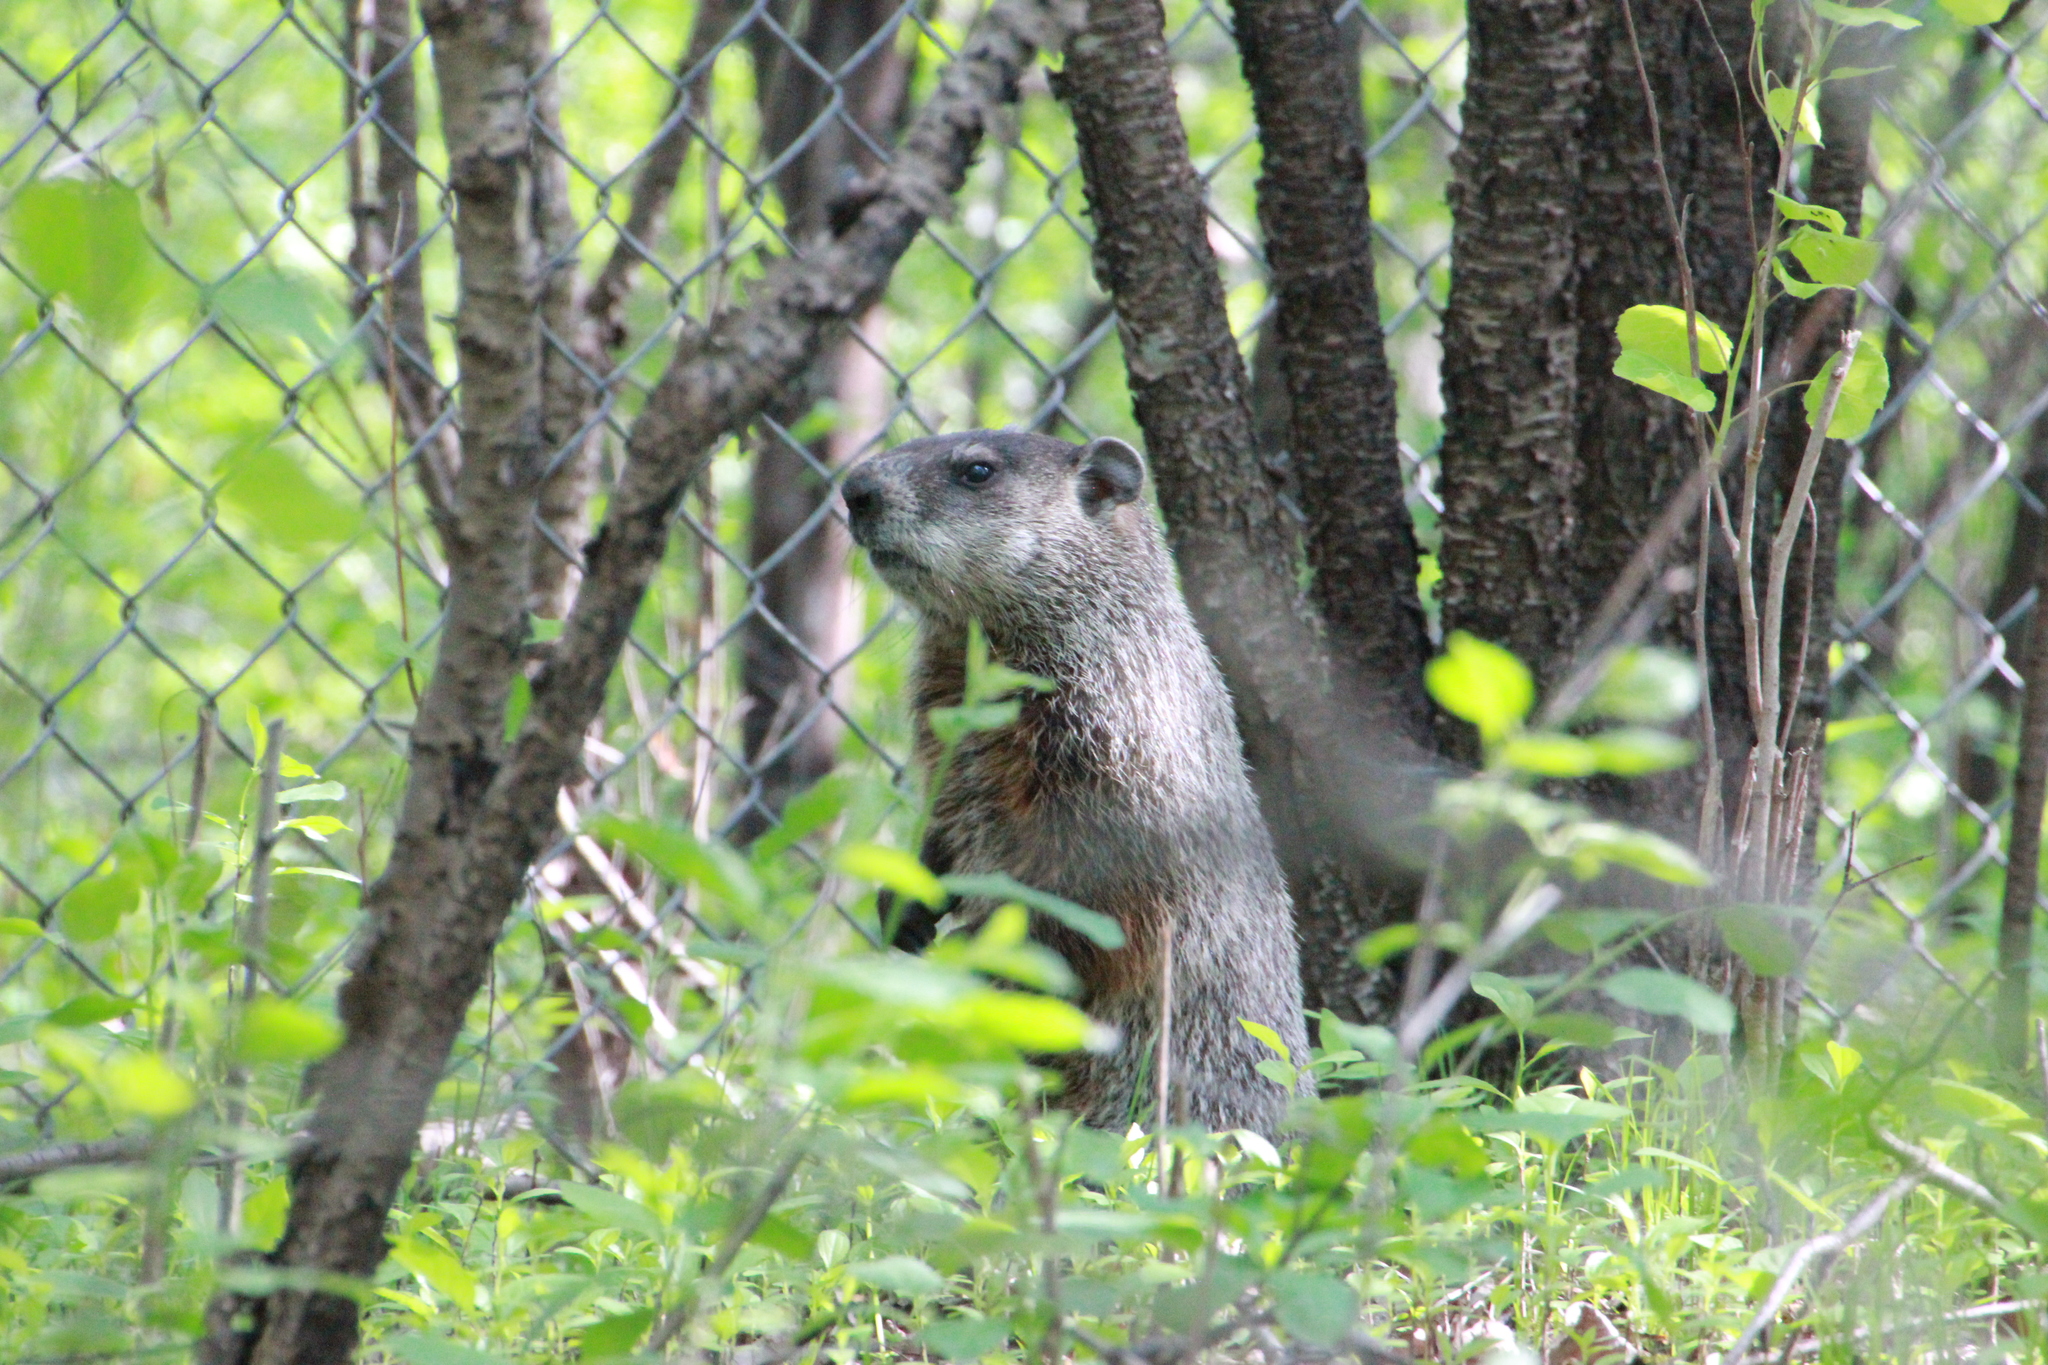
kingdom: Animalia
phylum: Chordata
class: Mammalia
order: Rodentia
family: Sciuridae
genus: Marmota
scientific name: Marmota monax
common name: Groundhog
